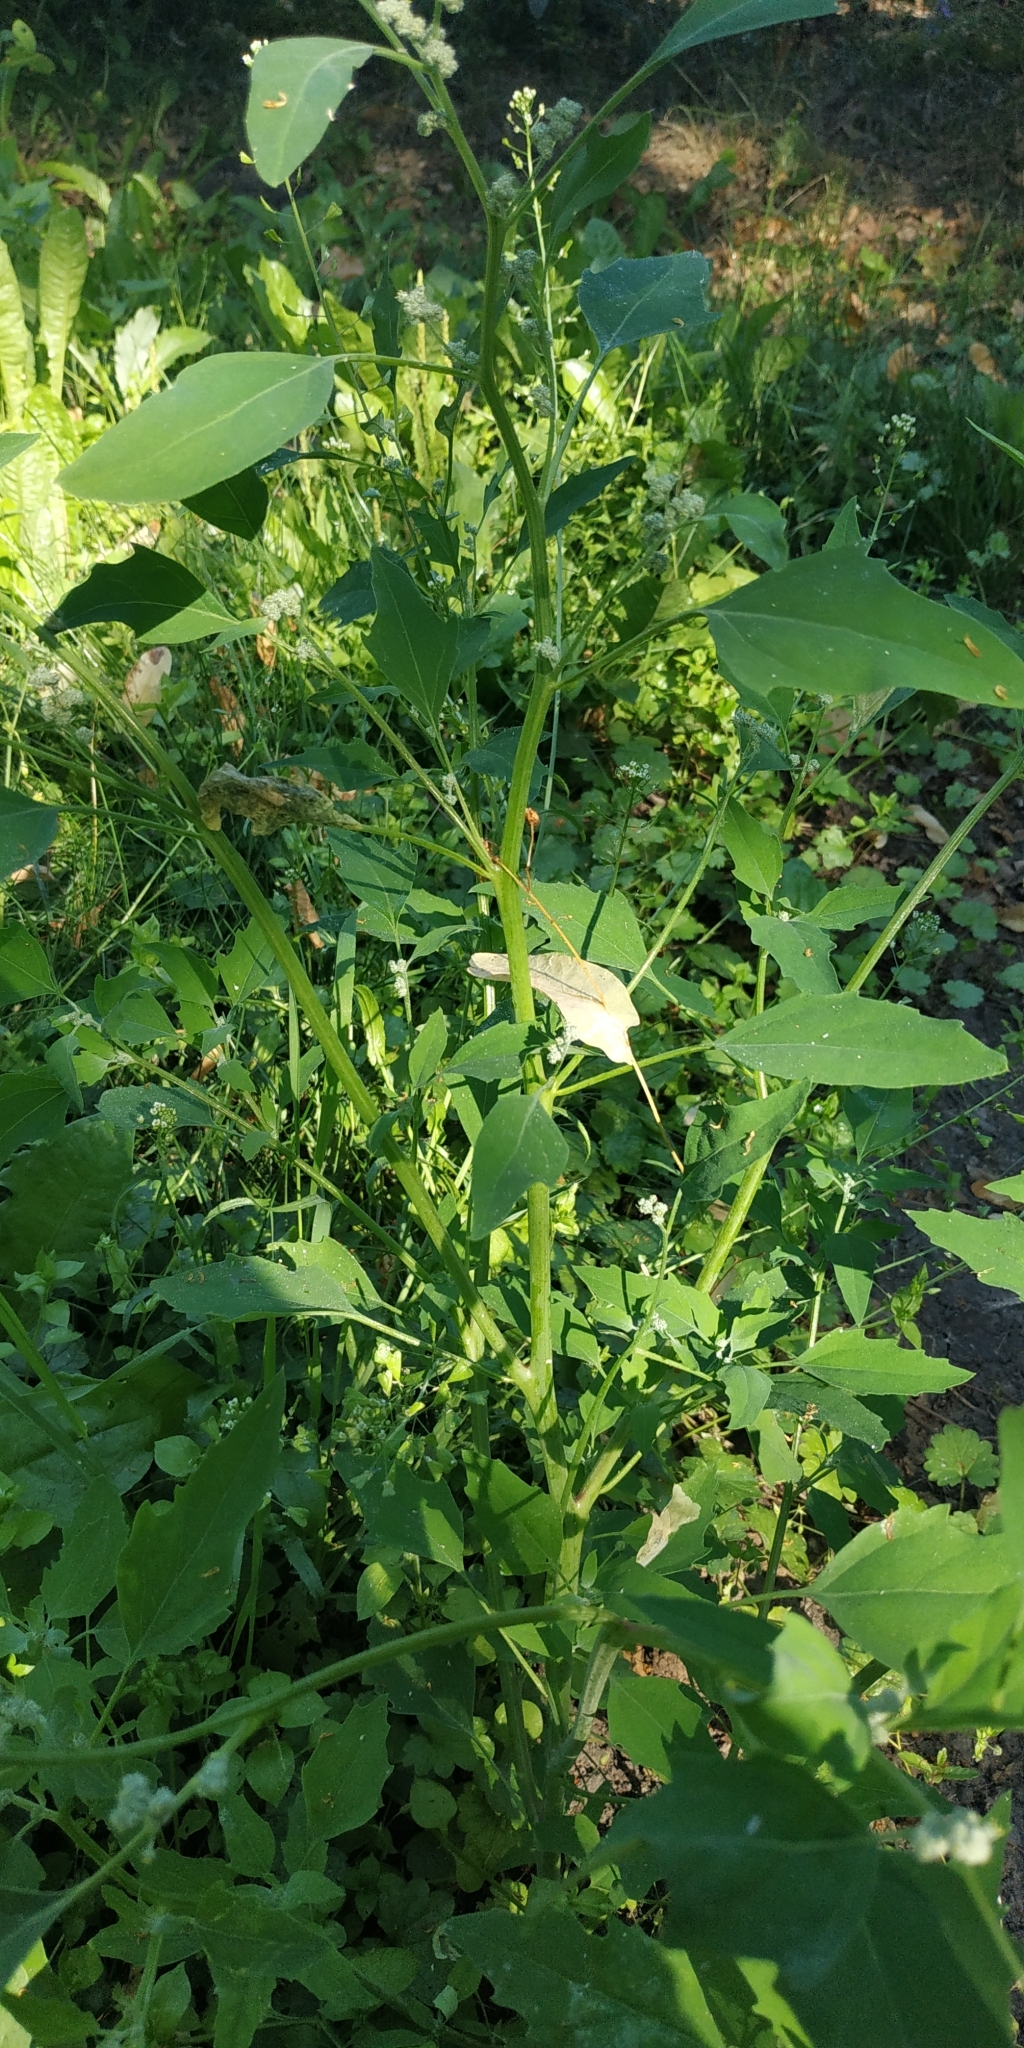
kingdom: Plantae
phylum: Tracheophyta
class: Magnoliopsida
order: Caryophyllales
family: Amaranthaceae
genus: Chenopodium
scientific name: Chenopodium album
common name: Fat-hen
